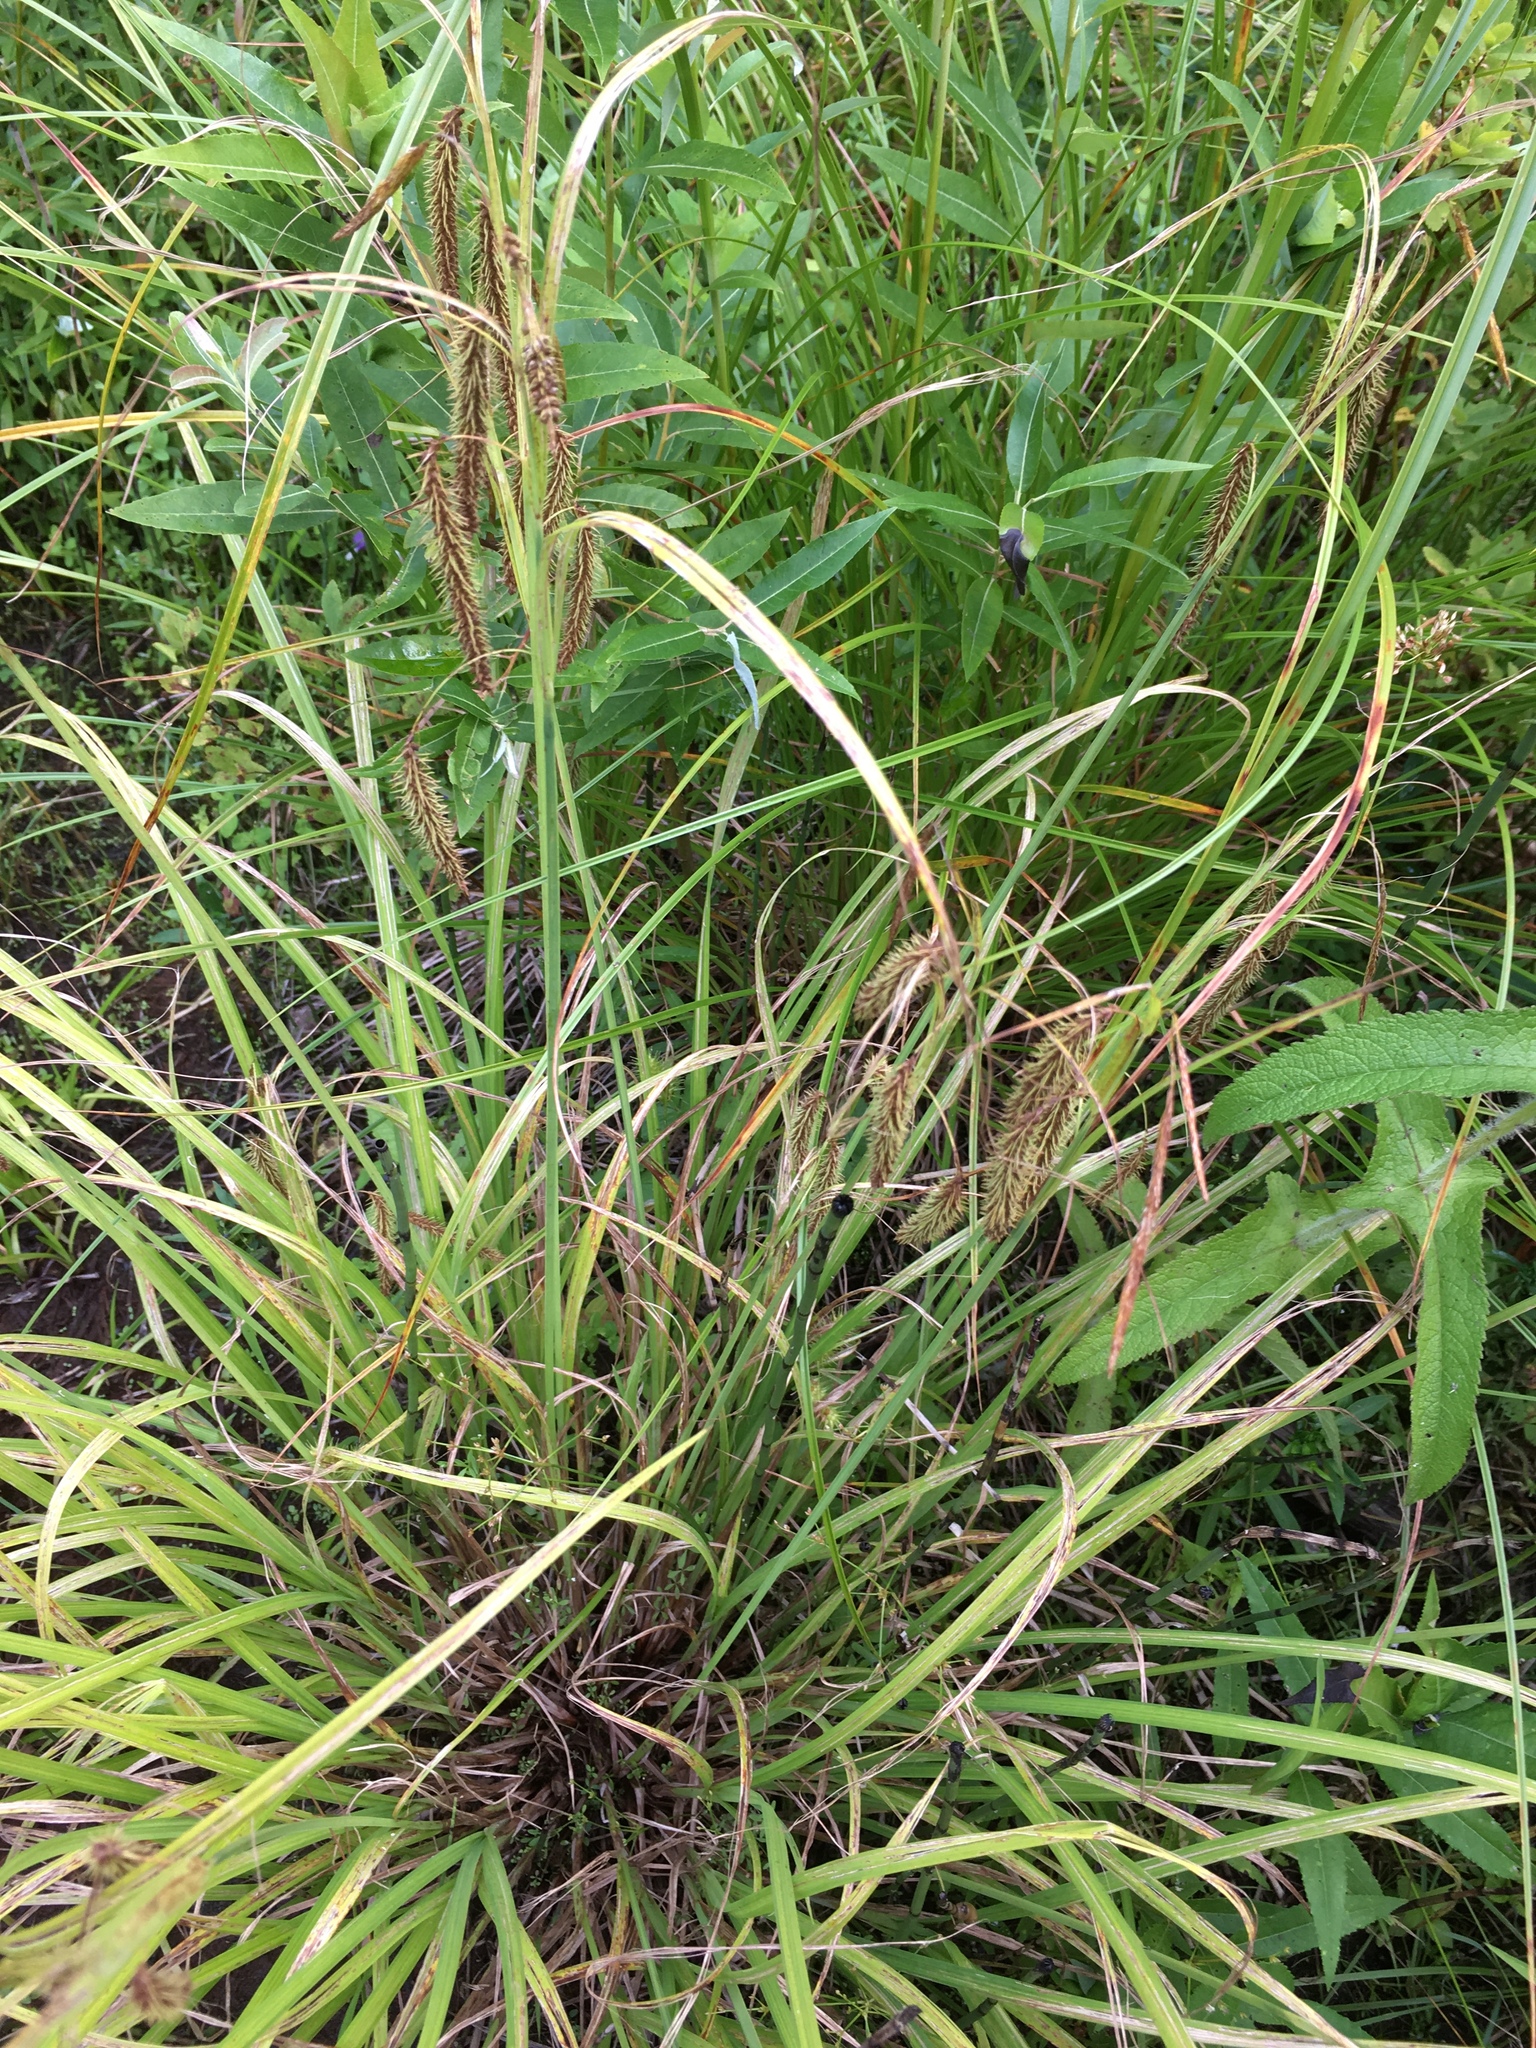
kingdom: Plantae
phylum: Tracheophyta
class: Liliopsida
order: Poales
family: Cyperaceae
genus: Carex
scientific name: Carex crinita
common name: Fringed sedge
